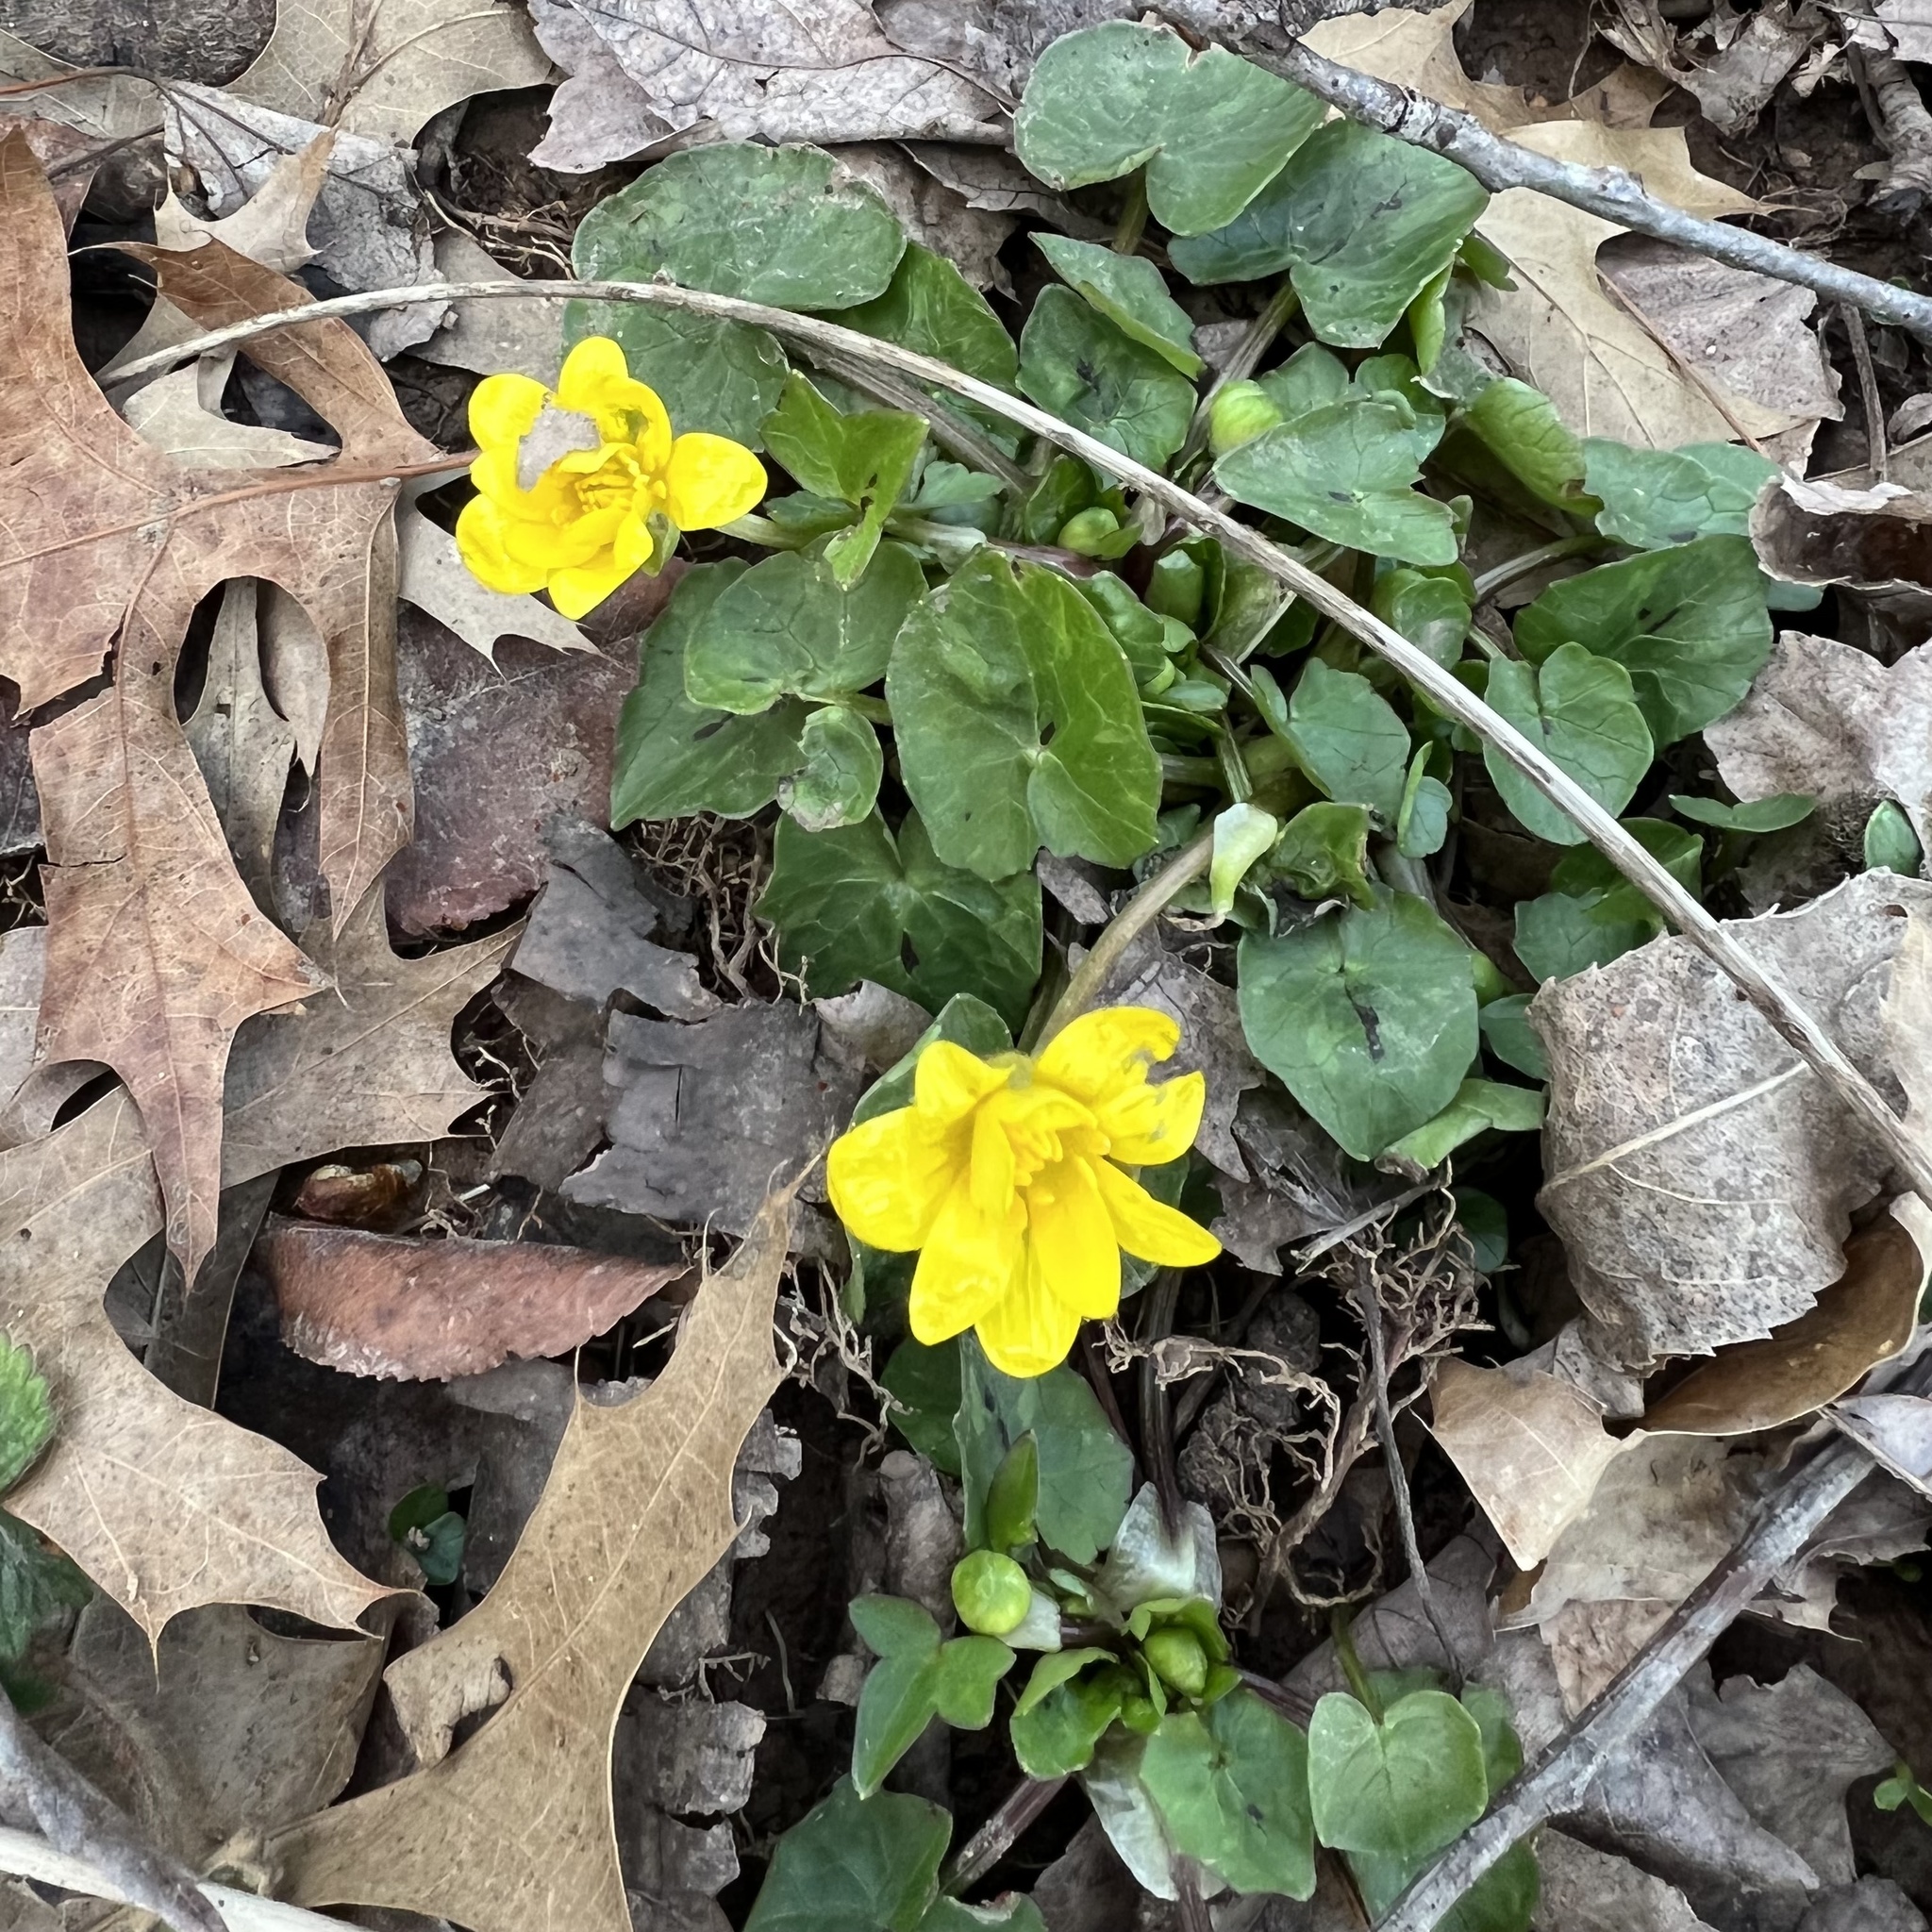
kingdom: Plantae
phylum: Tracheophyta
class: Magnoliopsida
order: Ranunculales
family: Ranunculaceae
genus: Ficaria
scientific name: Ficaria verna
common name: Lesser celandine
